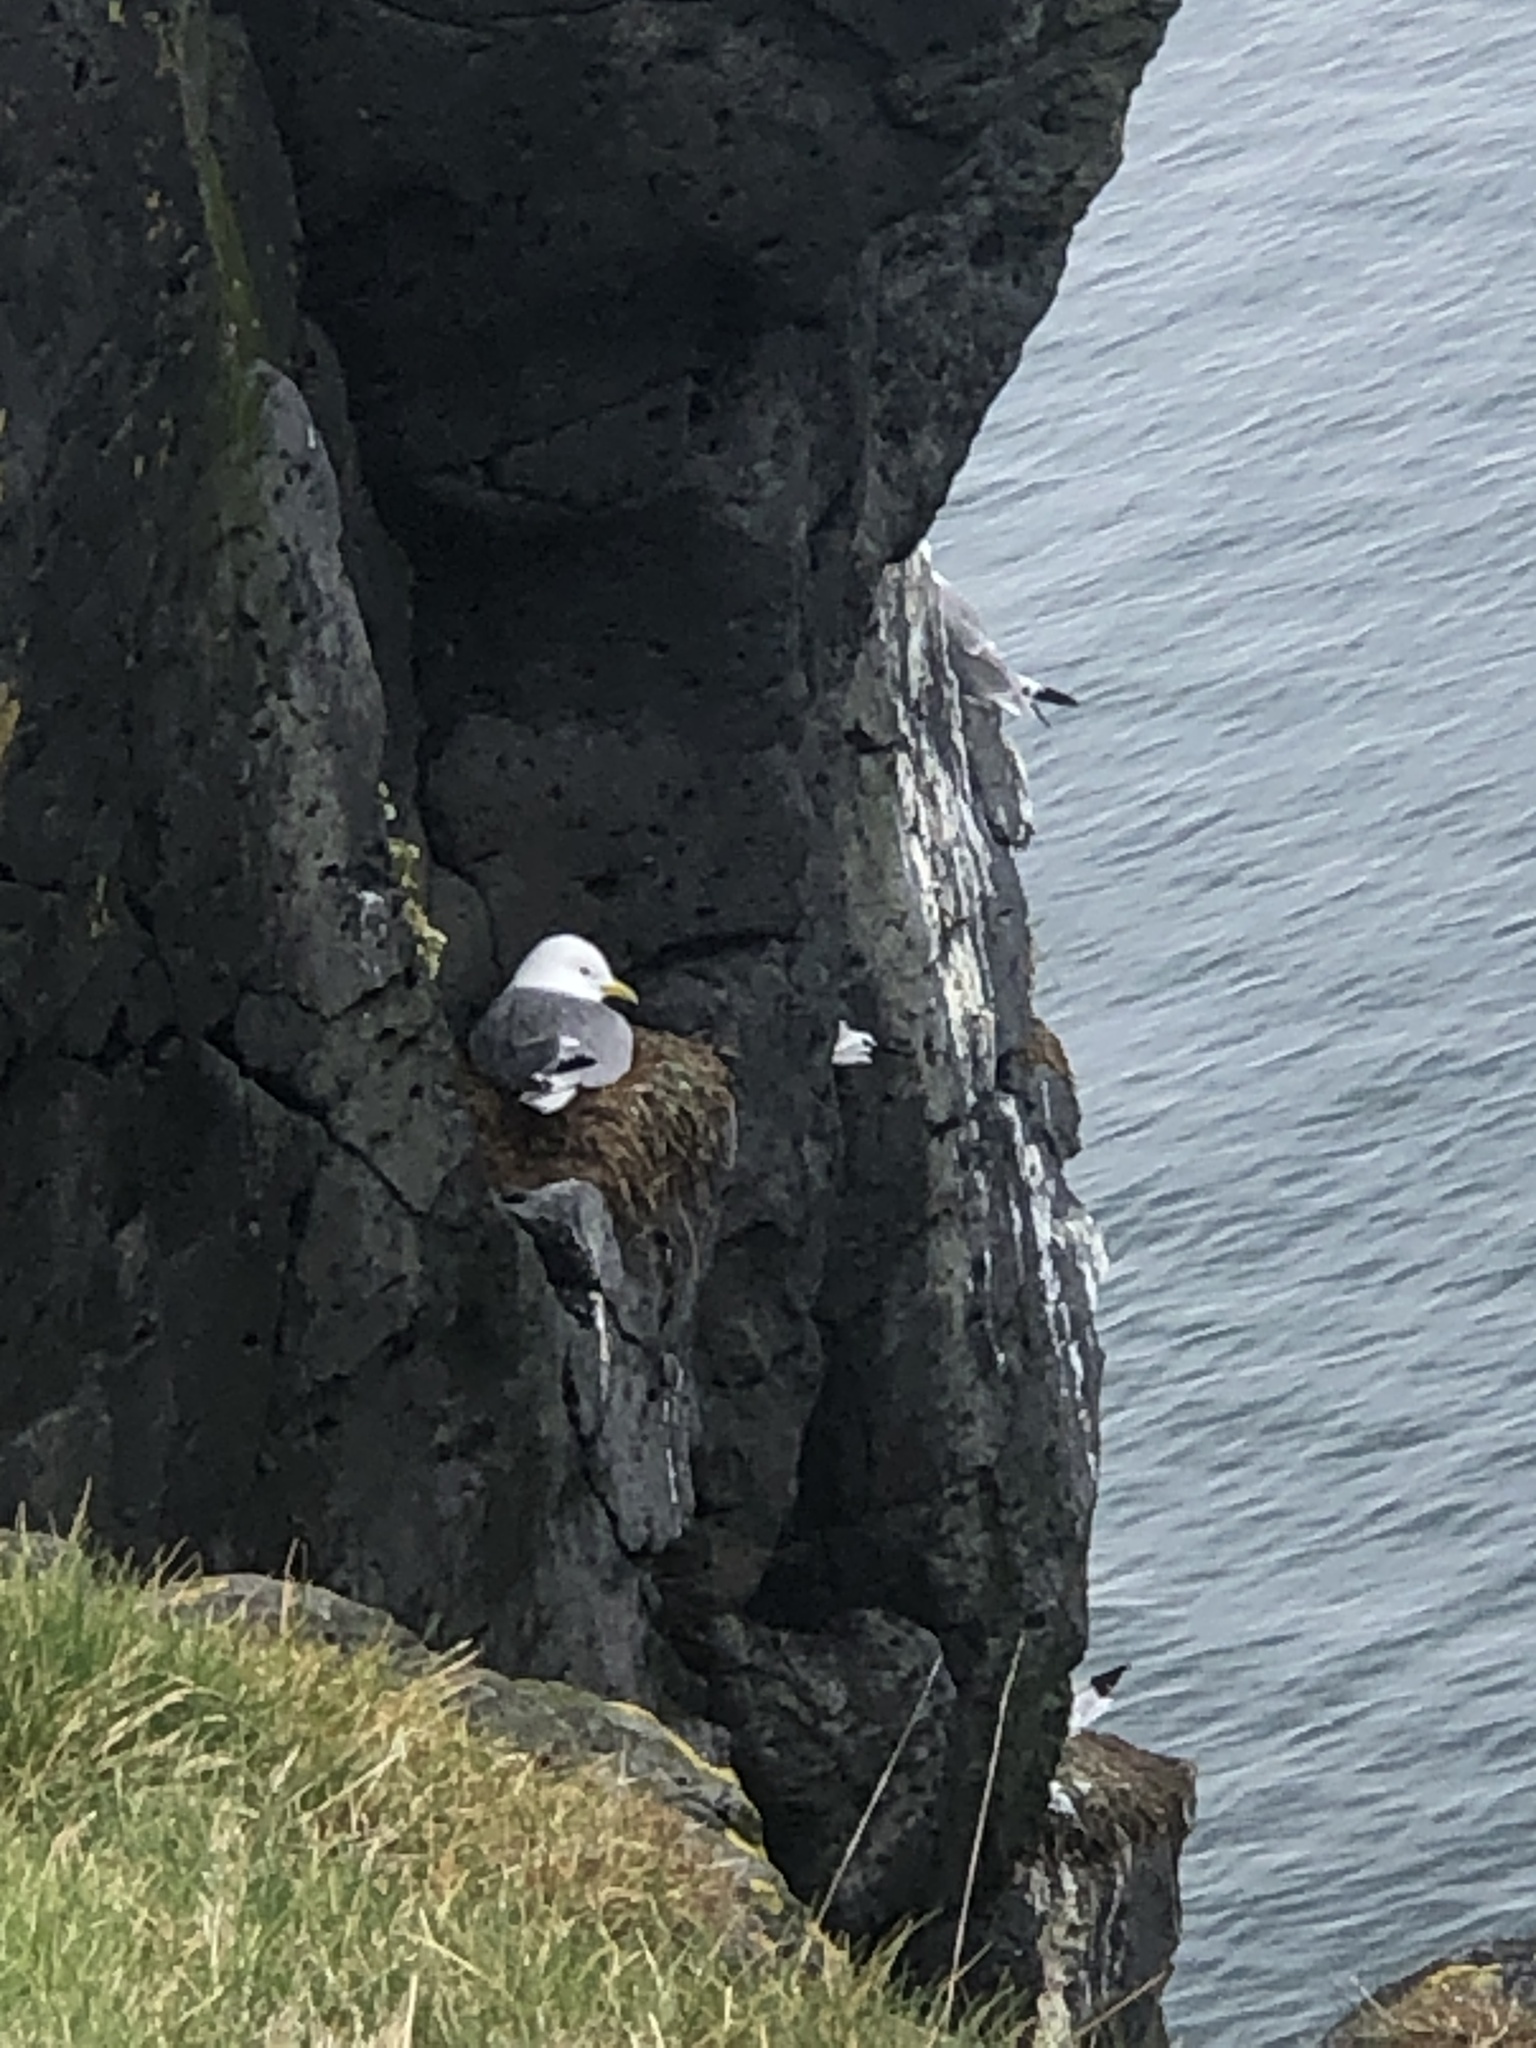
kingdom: Animalia
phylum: Chordata
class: Aves
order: Charadriiformes
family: Laridae
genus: Rissa
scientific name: Rissa tridactyla
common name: Black-legged kittiwake
